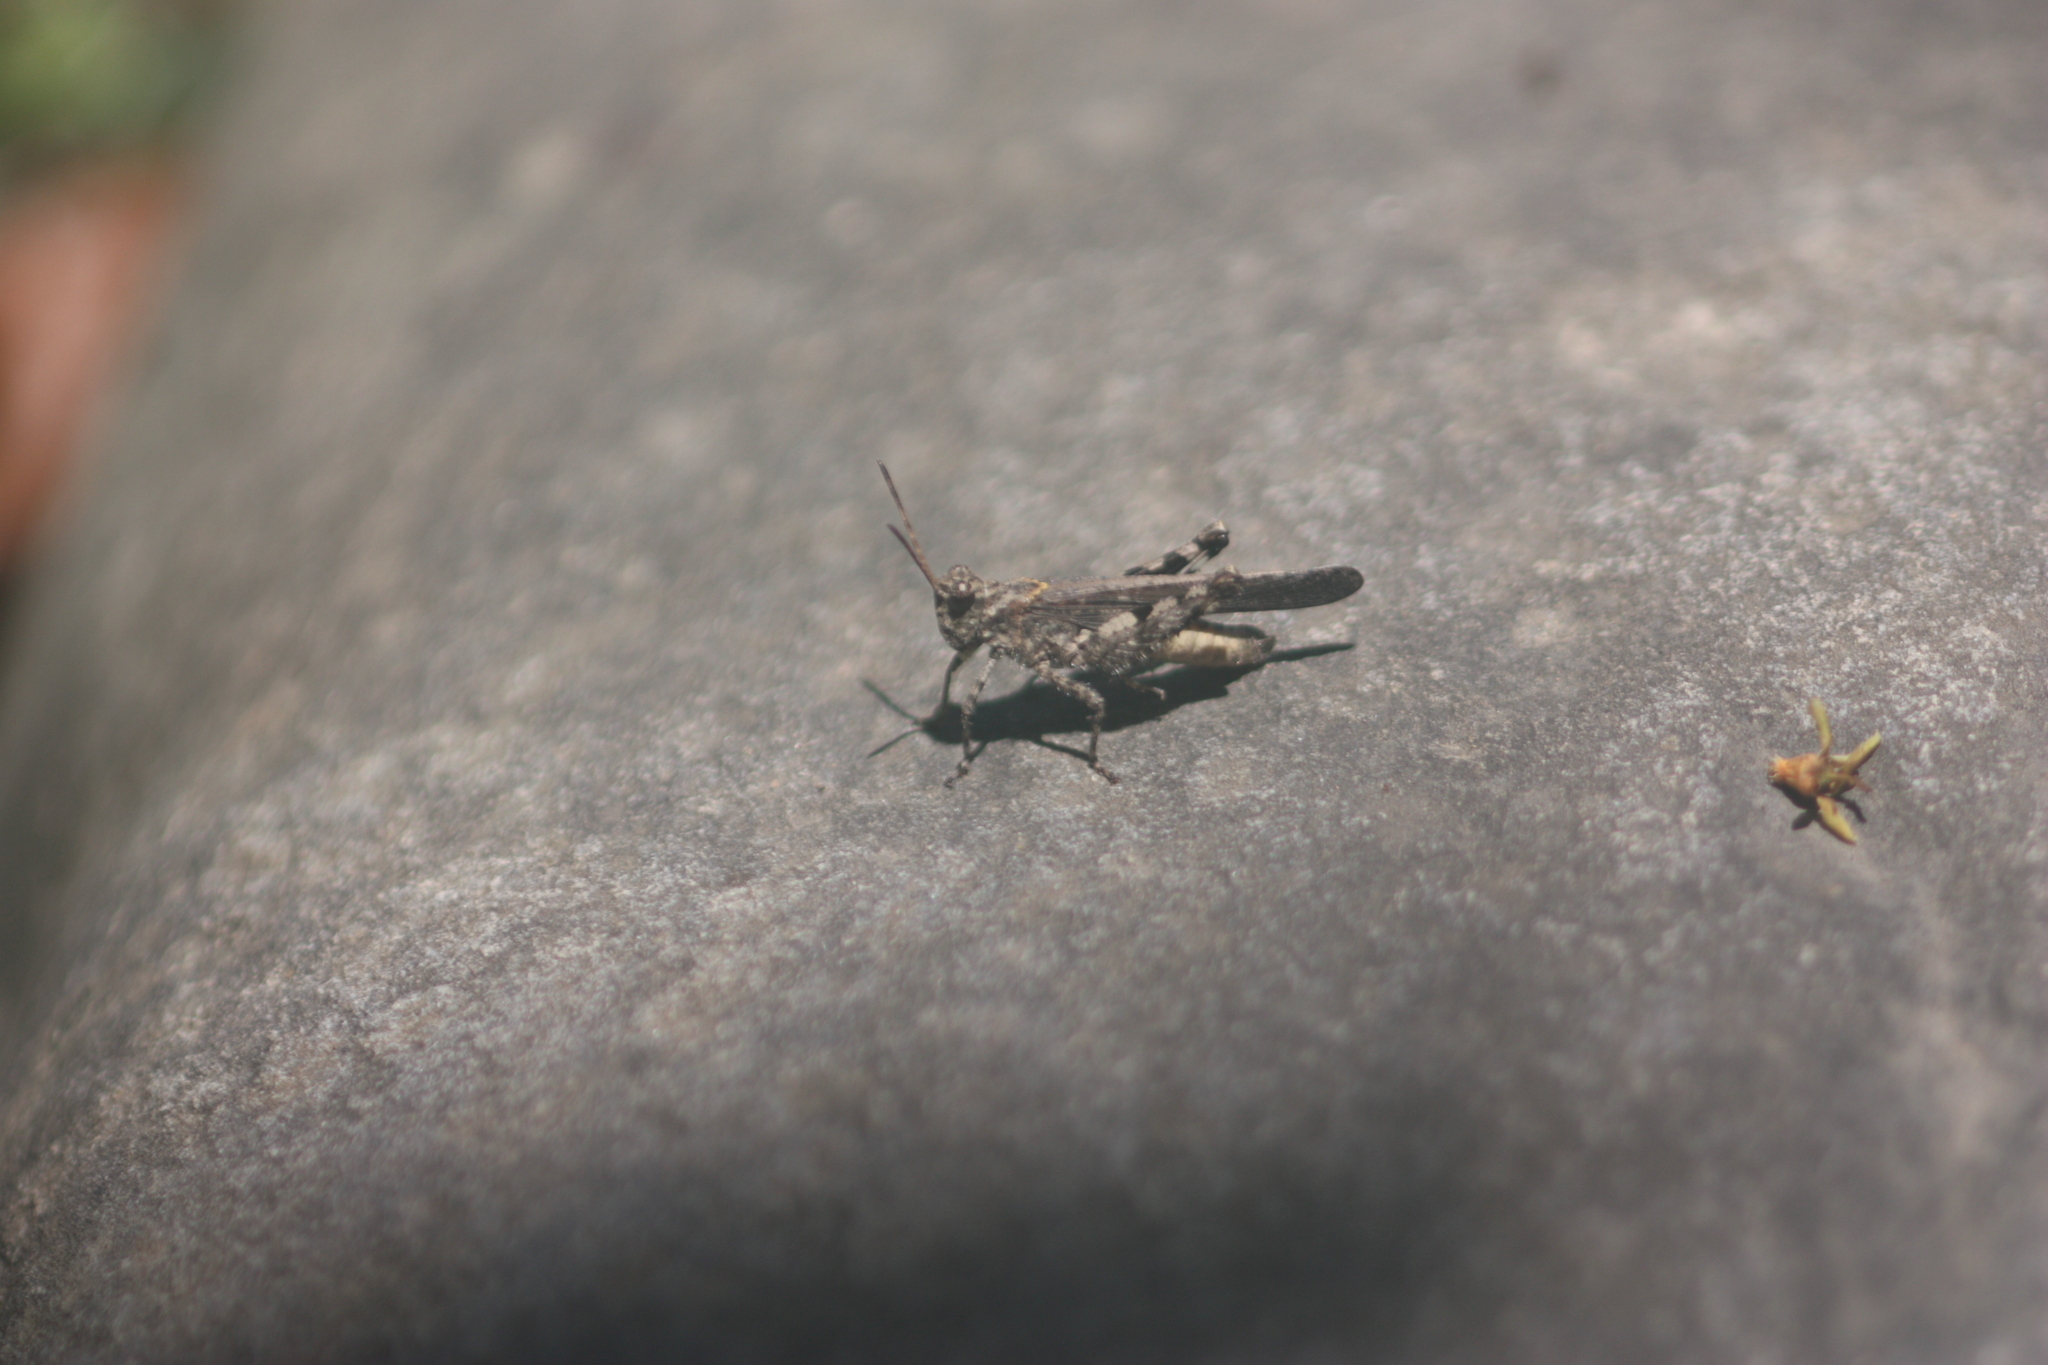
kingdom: Animalia
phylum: Arthropoda
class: Insecta
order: Orthoptera
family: Acrididae
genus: Trilophidia
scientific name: Trilophidia annulata
